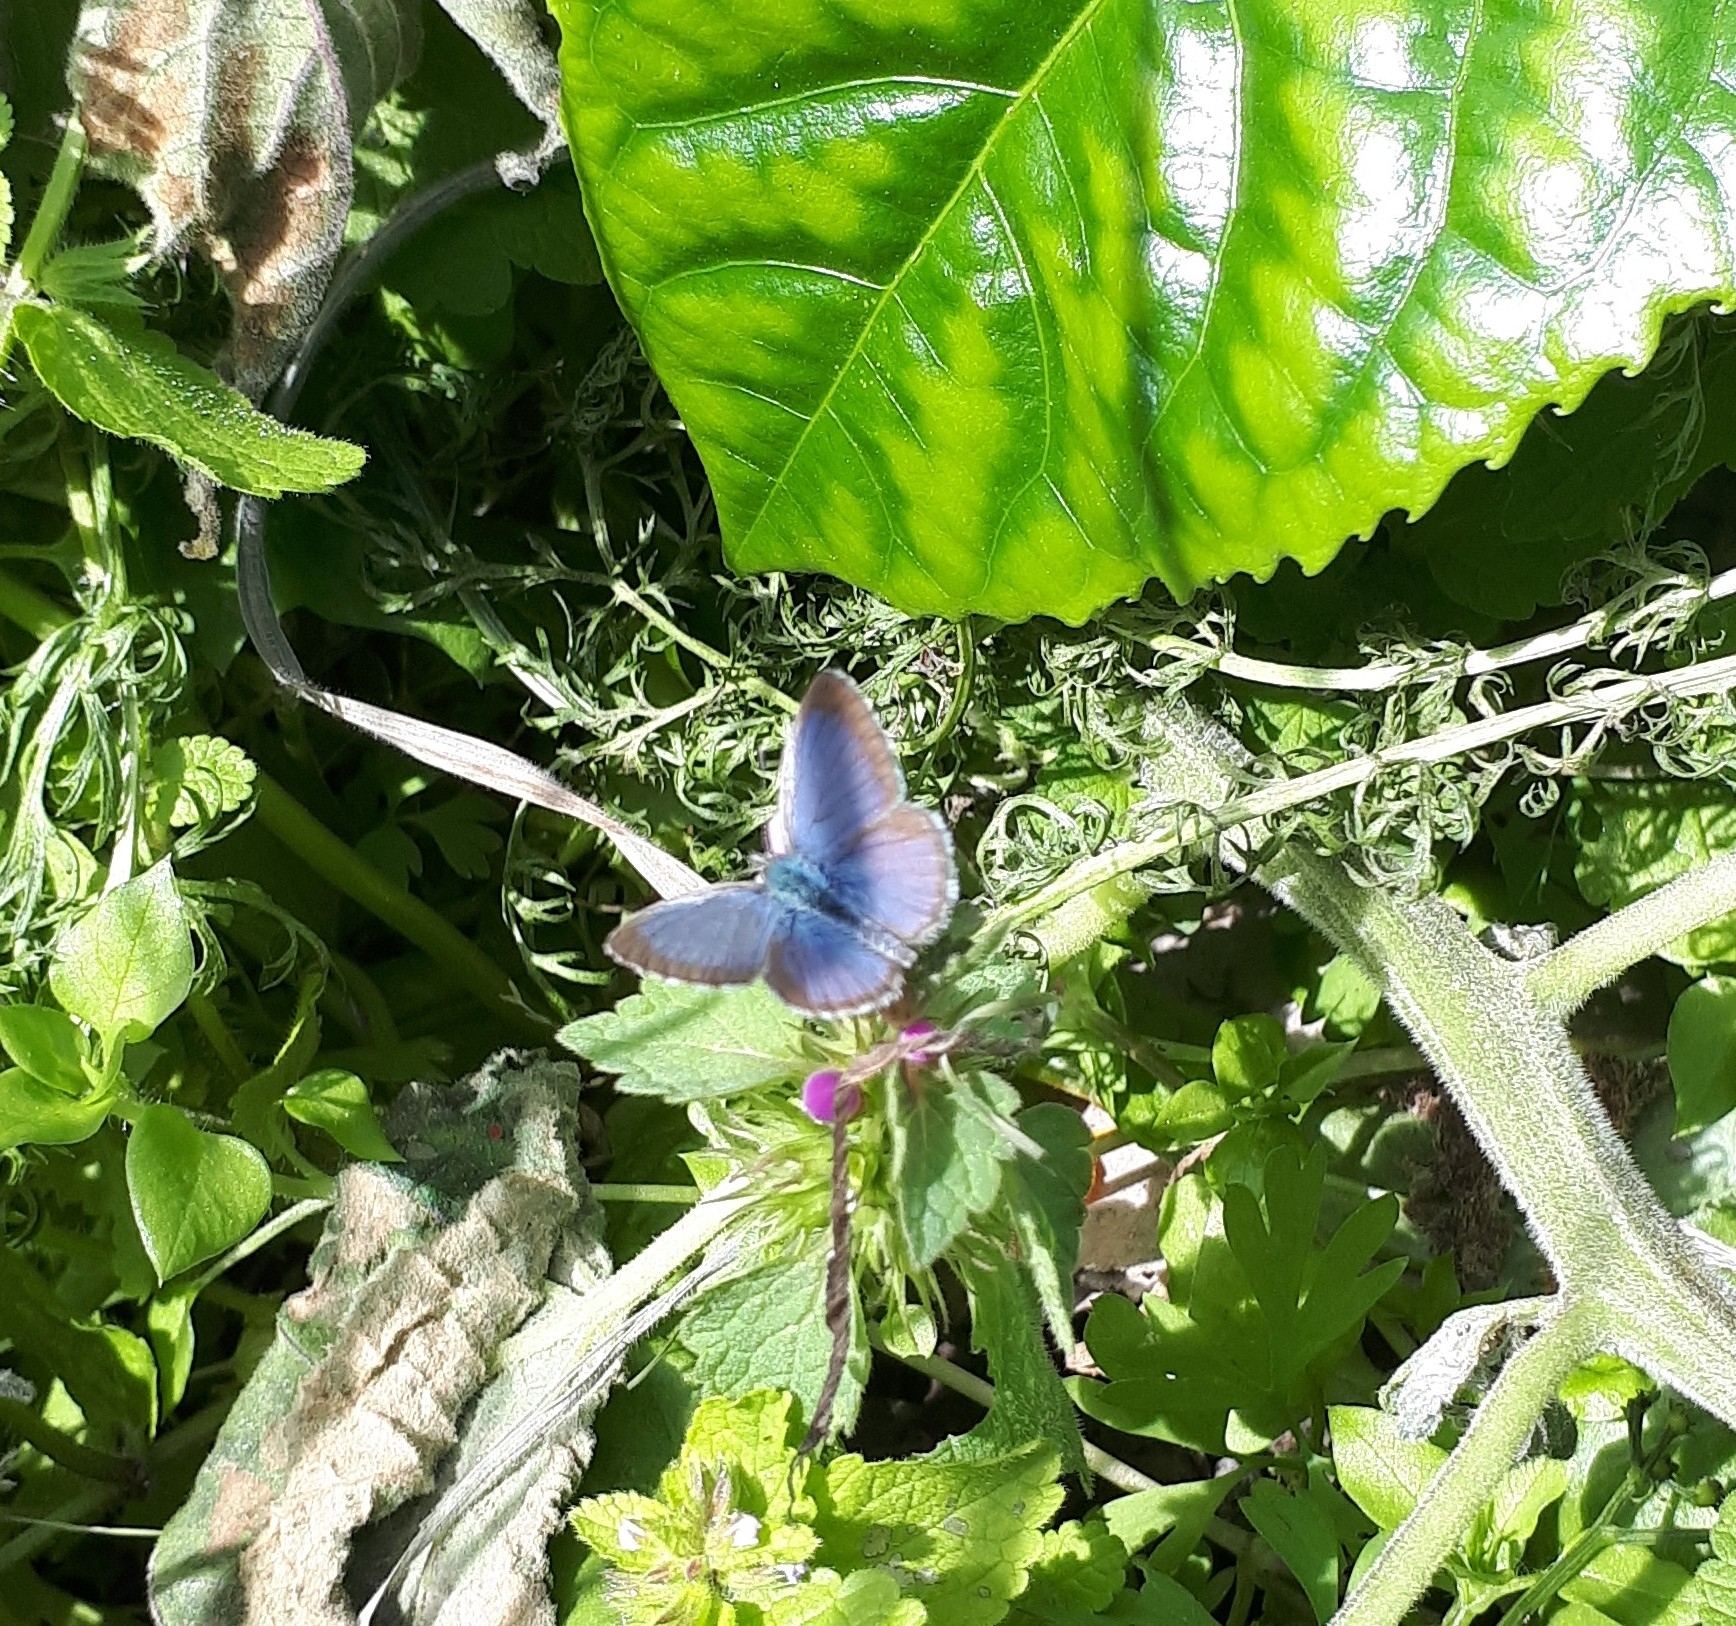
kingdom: Animalia
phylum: Arthropoda
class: Insecta
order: Lepidoptera
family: Lycaenidae
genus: Zizina
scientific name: Zizina labradus
